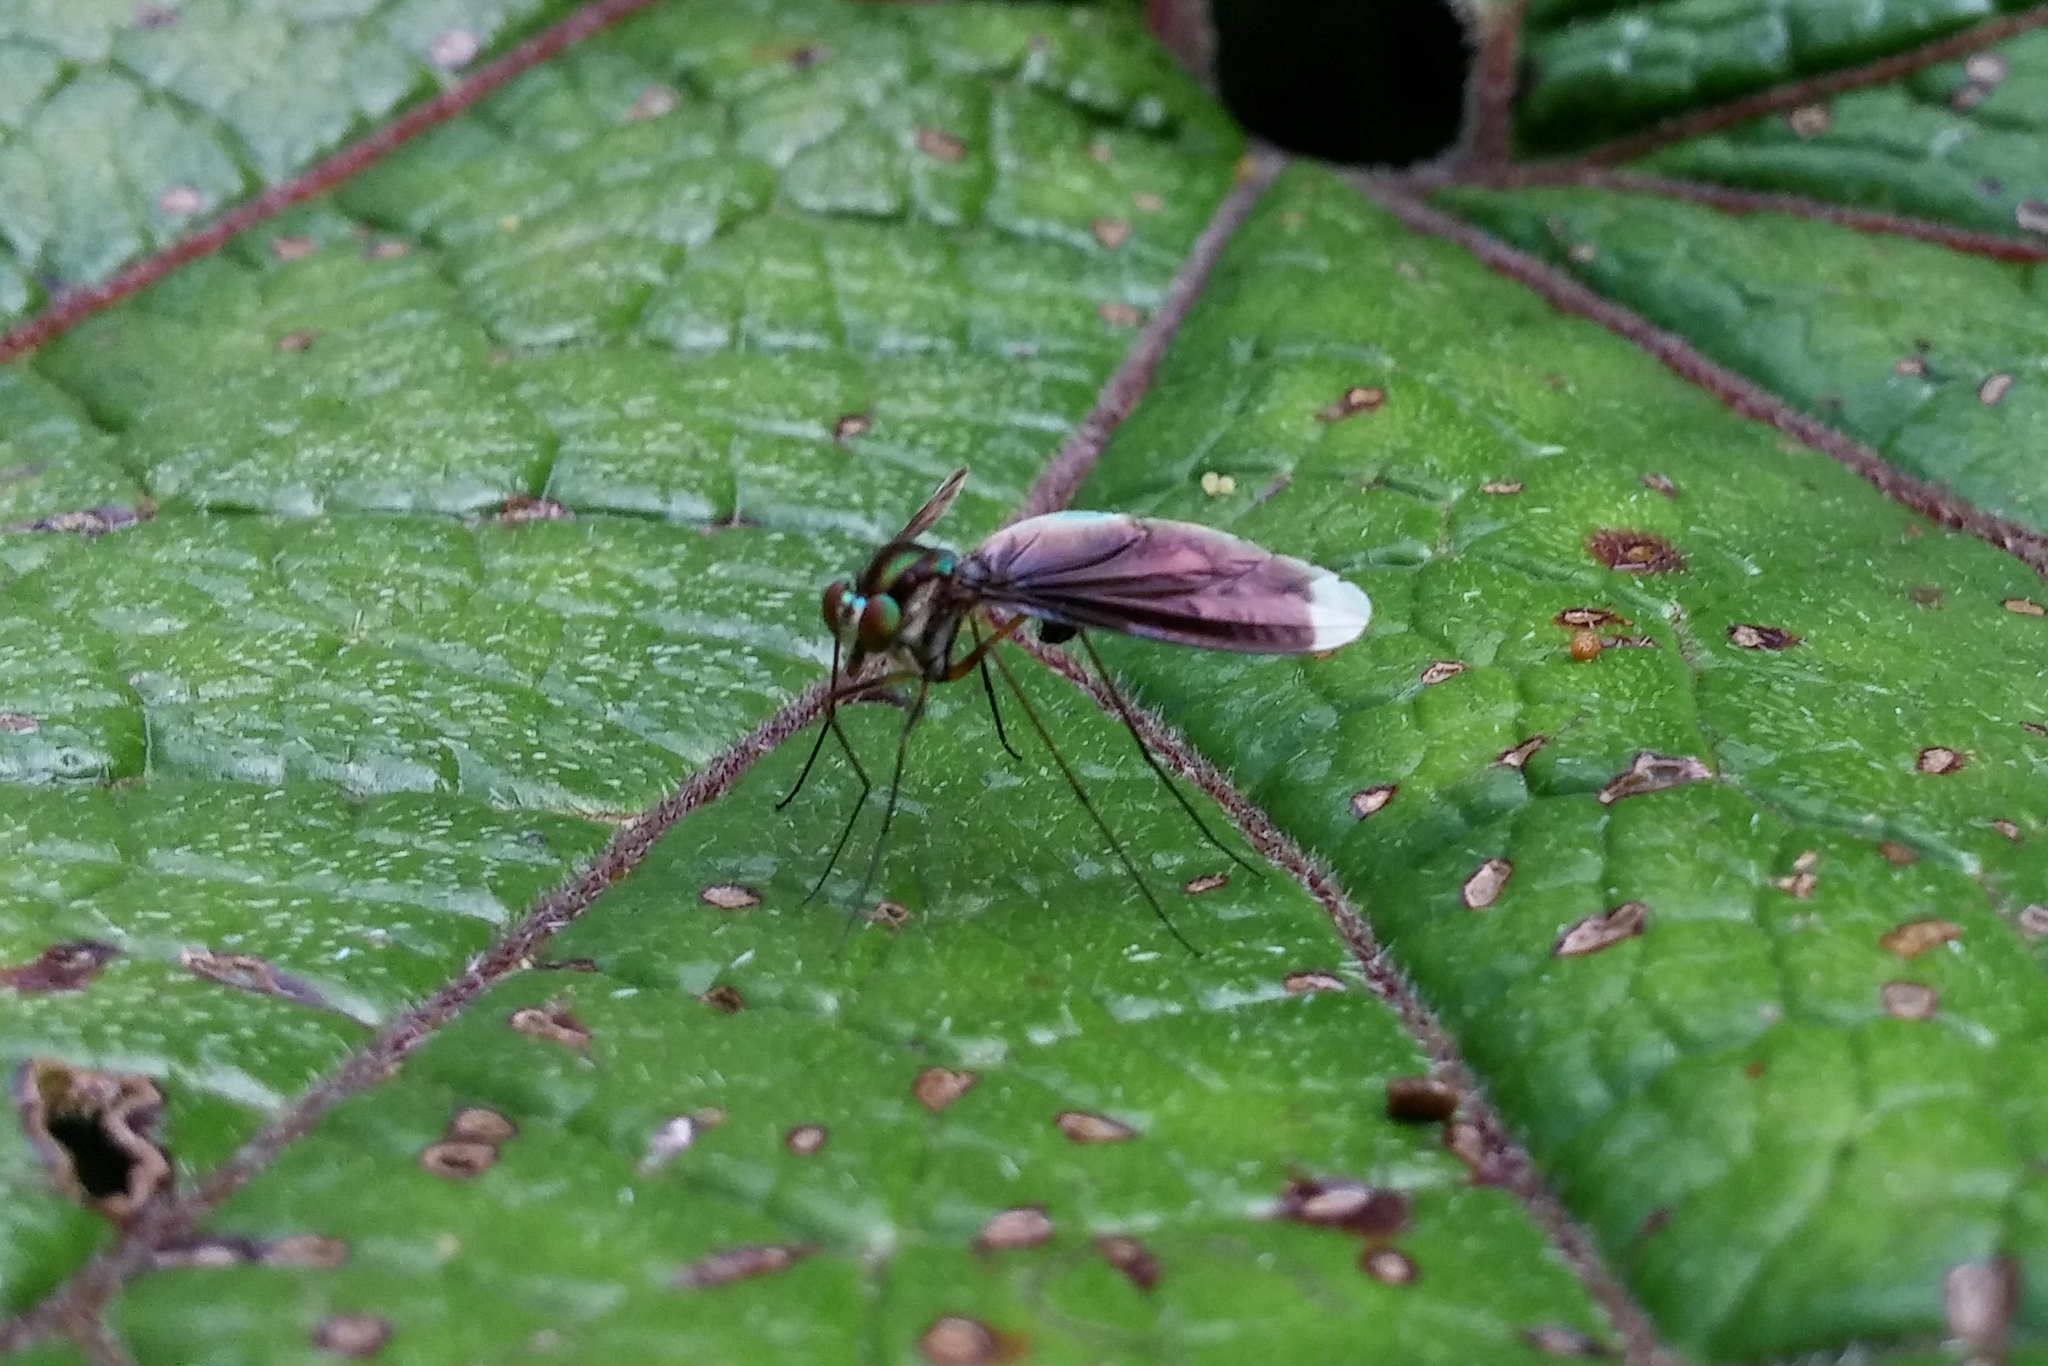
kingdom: Animalia
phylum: Arthropoda
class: Insecta
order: Diptera
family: Dolichopodidae
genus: Chrysosoma
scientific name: Chrysosoma splendidum
